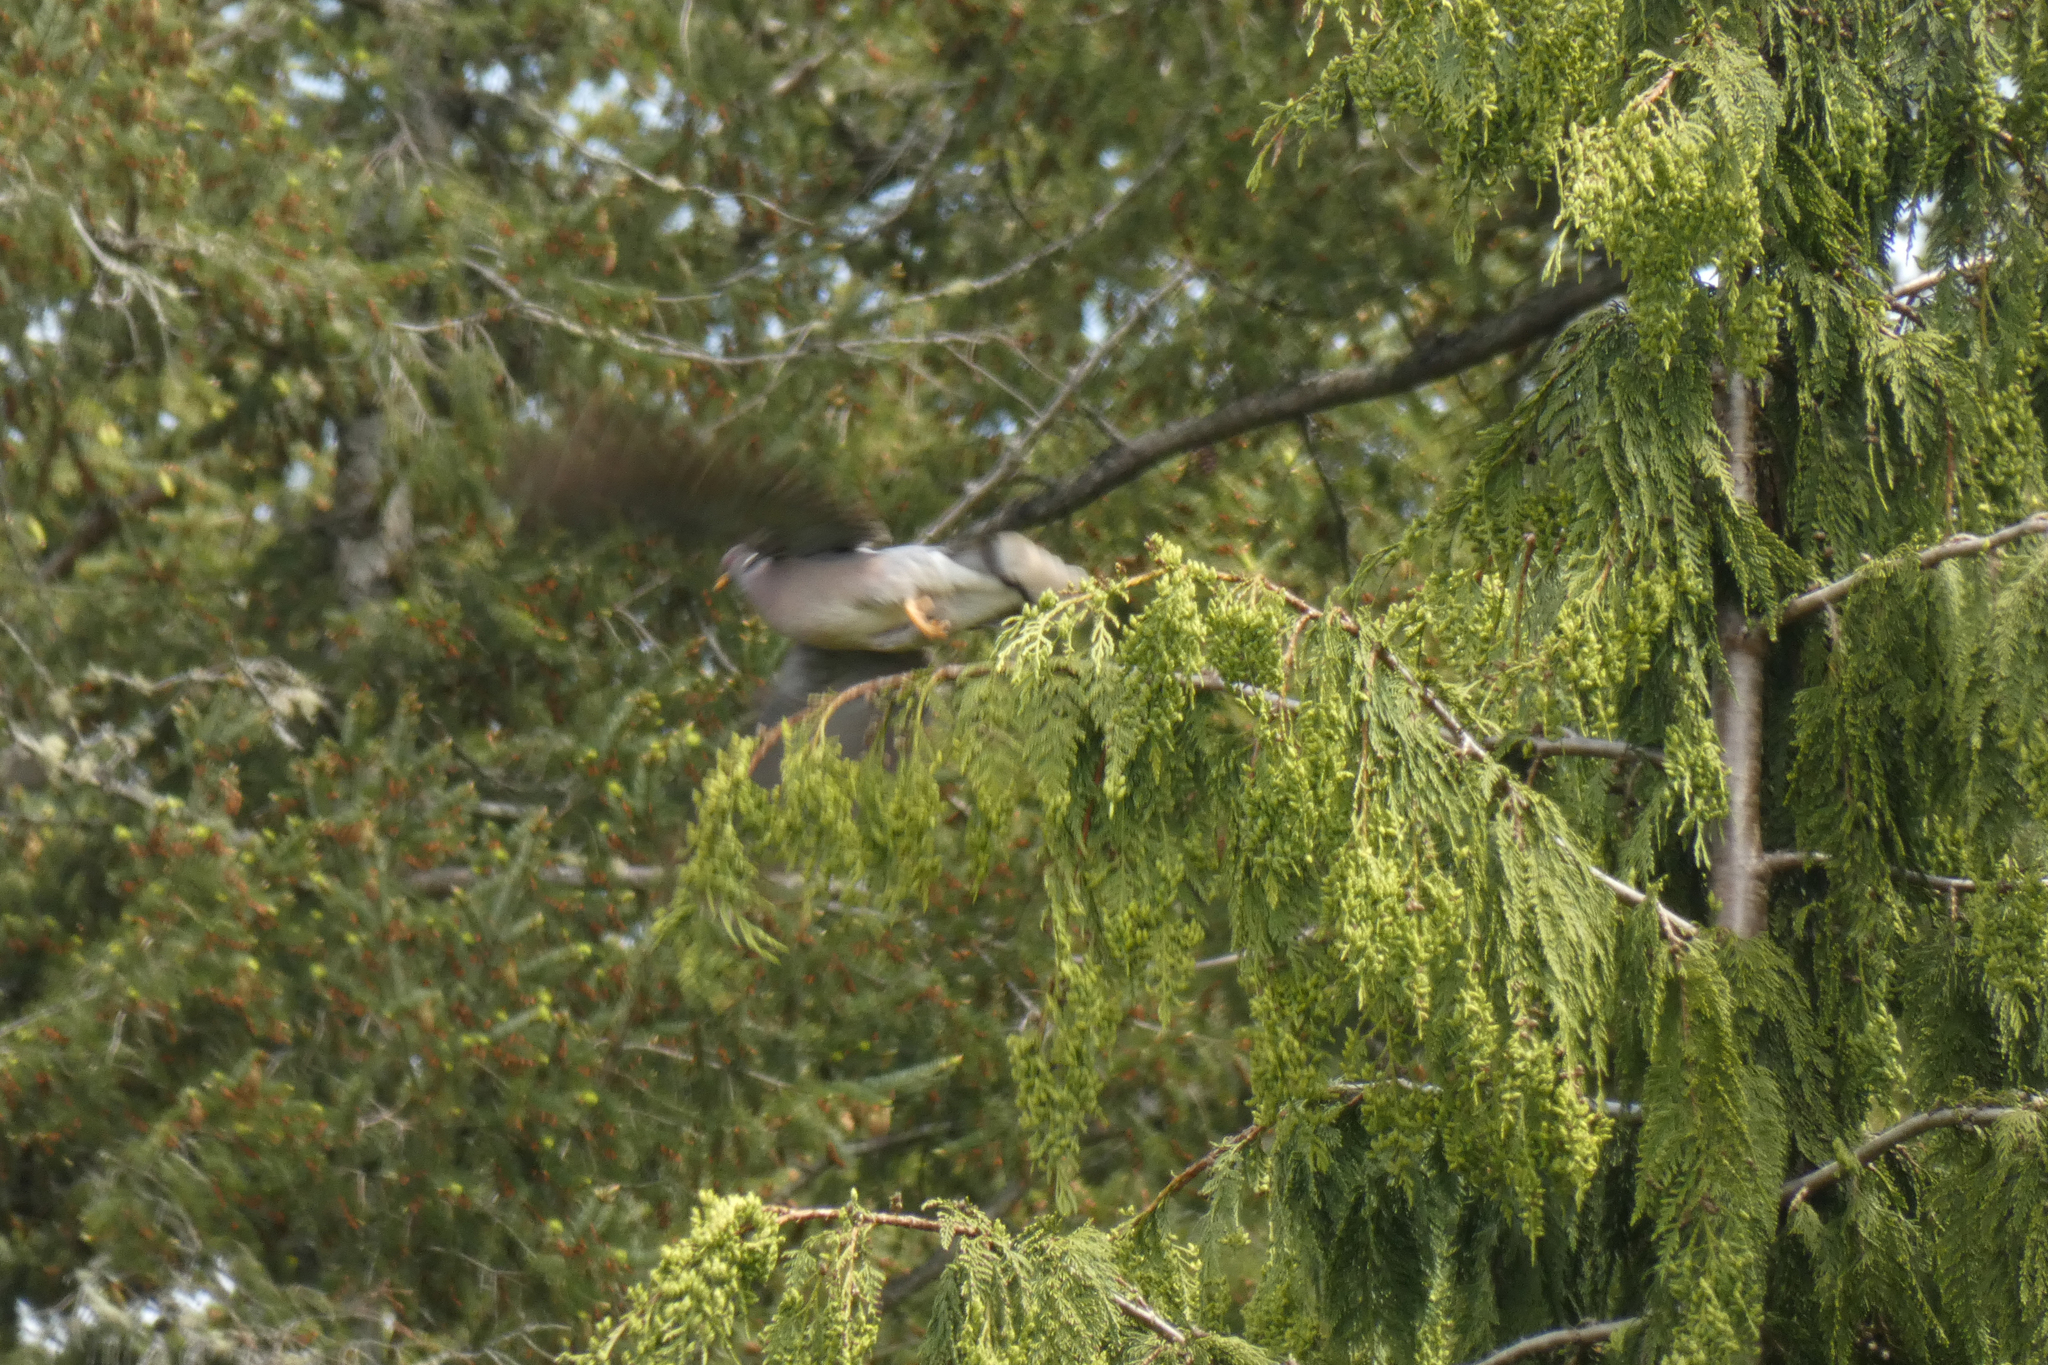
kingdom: Animalia
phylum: Chordata
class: Aves
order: Columbiformes
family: Columbidae
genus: Patagioenas
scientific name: Patagioenas fasciata
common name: Band-tailed pigeon
